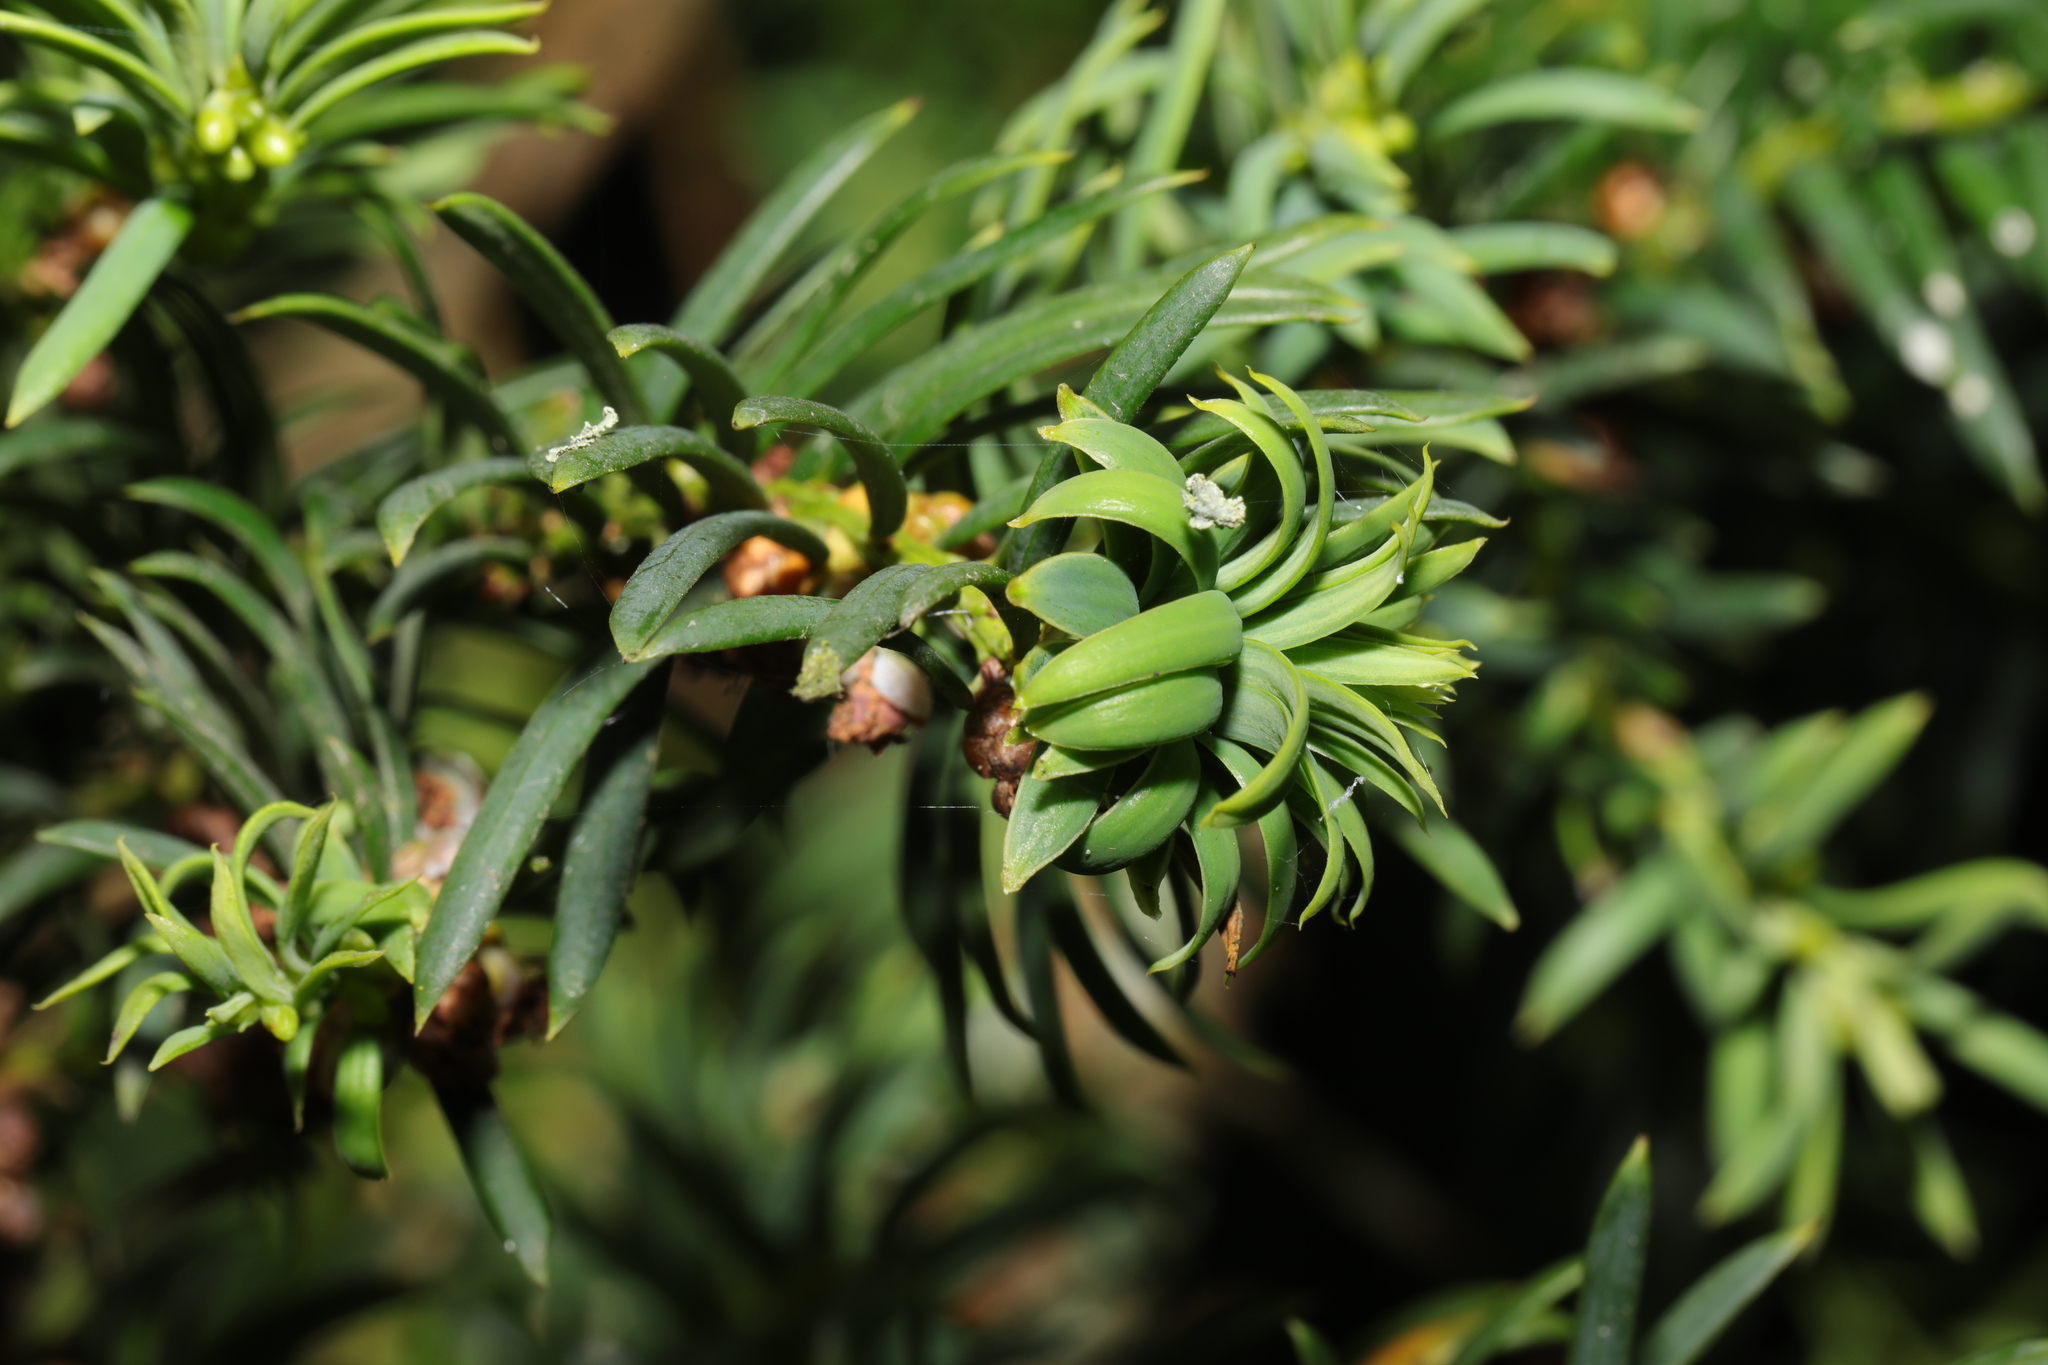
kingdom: Animalia
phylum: Arthropoda
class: Insecta
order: Diptera
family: Cecidomyiidae
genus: Taxomyia
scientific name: Taxomyia taxi
